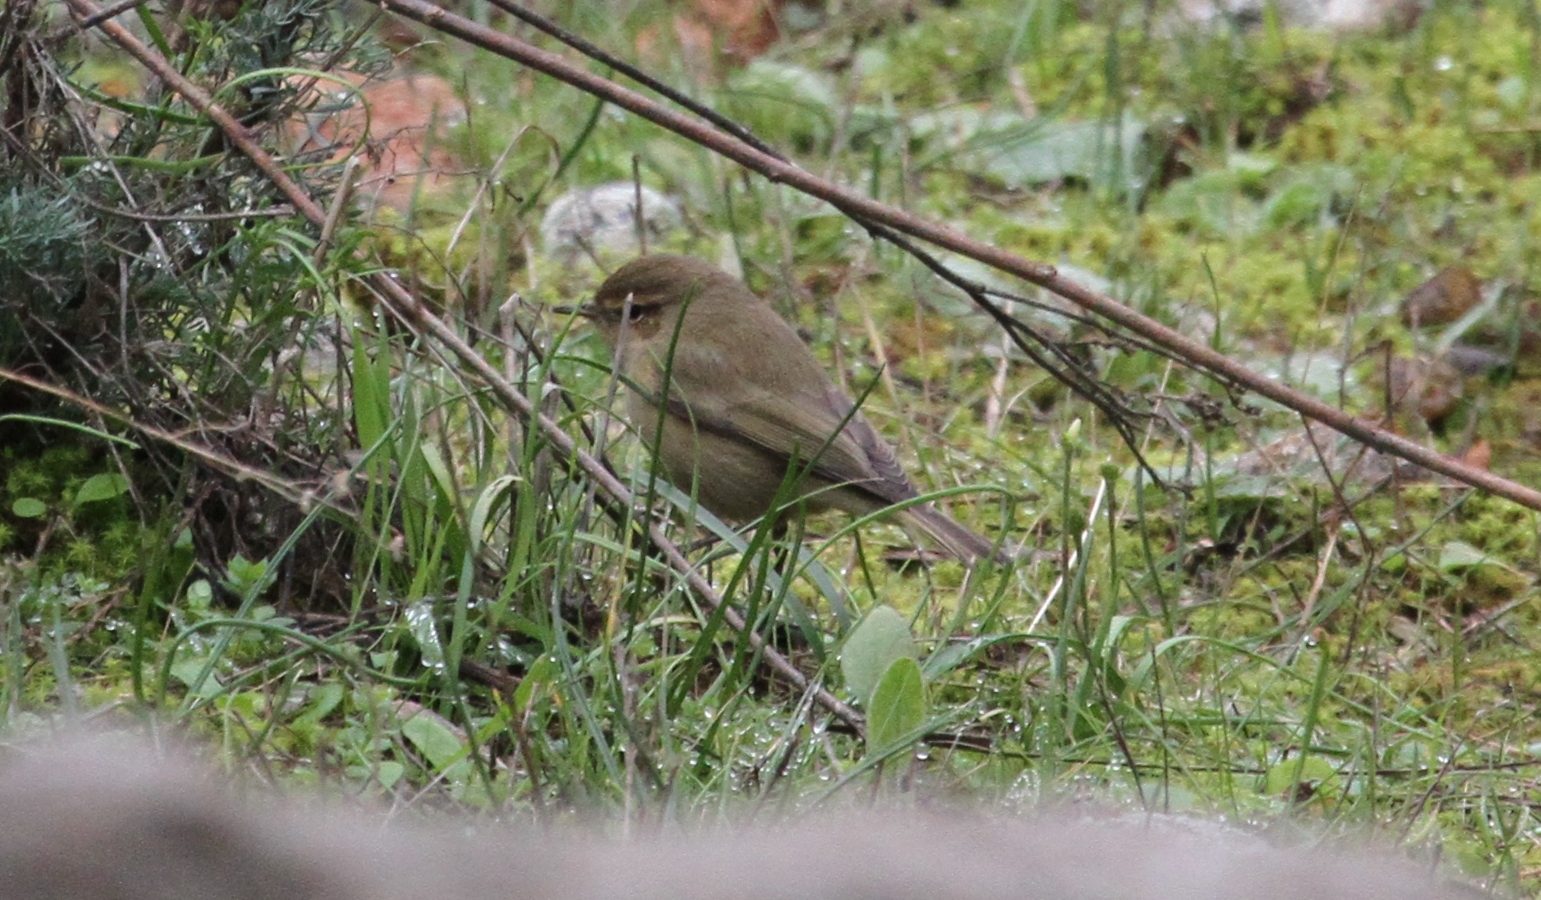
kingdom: Animalia
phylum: Chordata
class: Aves
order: Passeriformes
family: Phylloscopidae
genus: Phylloscopus
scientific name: Phylloscopus collybita
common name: Common chiffchaff
